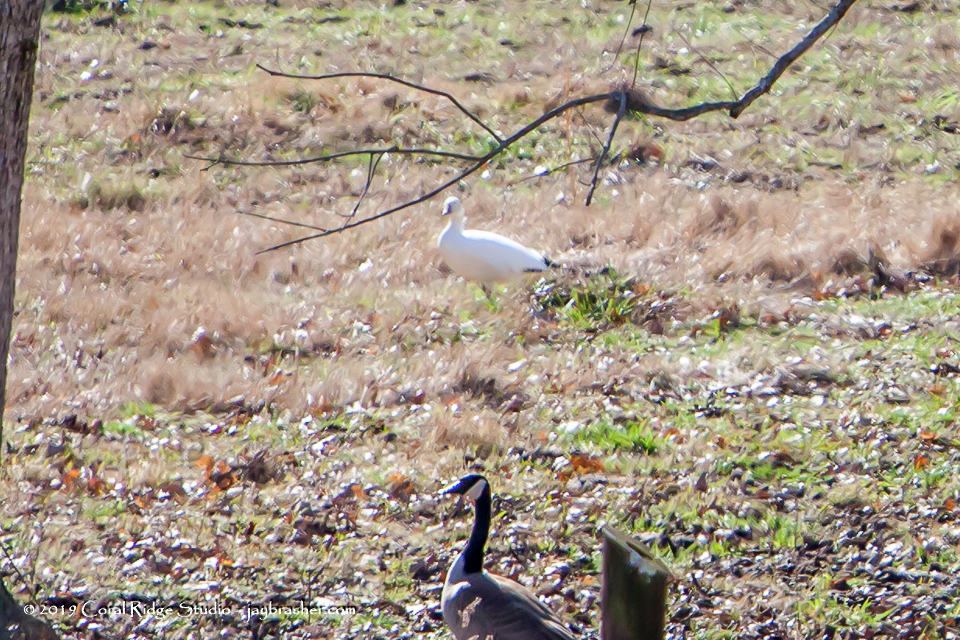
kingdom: Animalia
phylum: Chordata
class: Aves
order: Anseriformes
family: Anatidae
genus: Anser
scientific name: Anser caerulescens
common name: Snow goose
